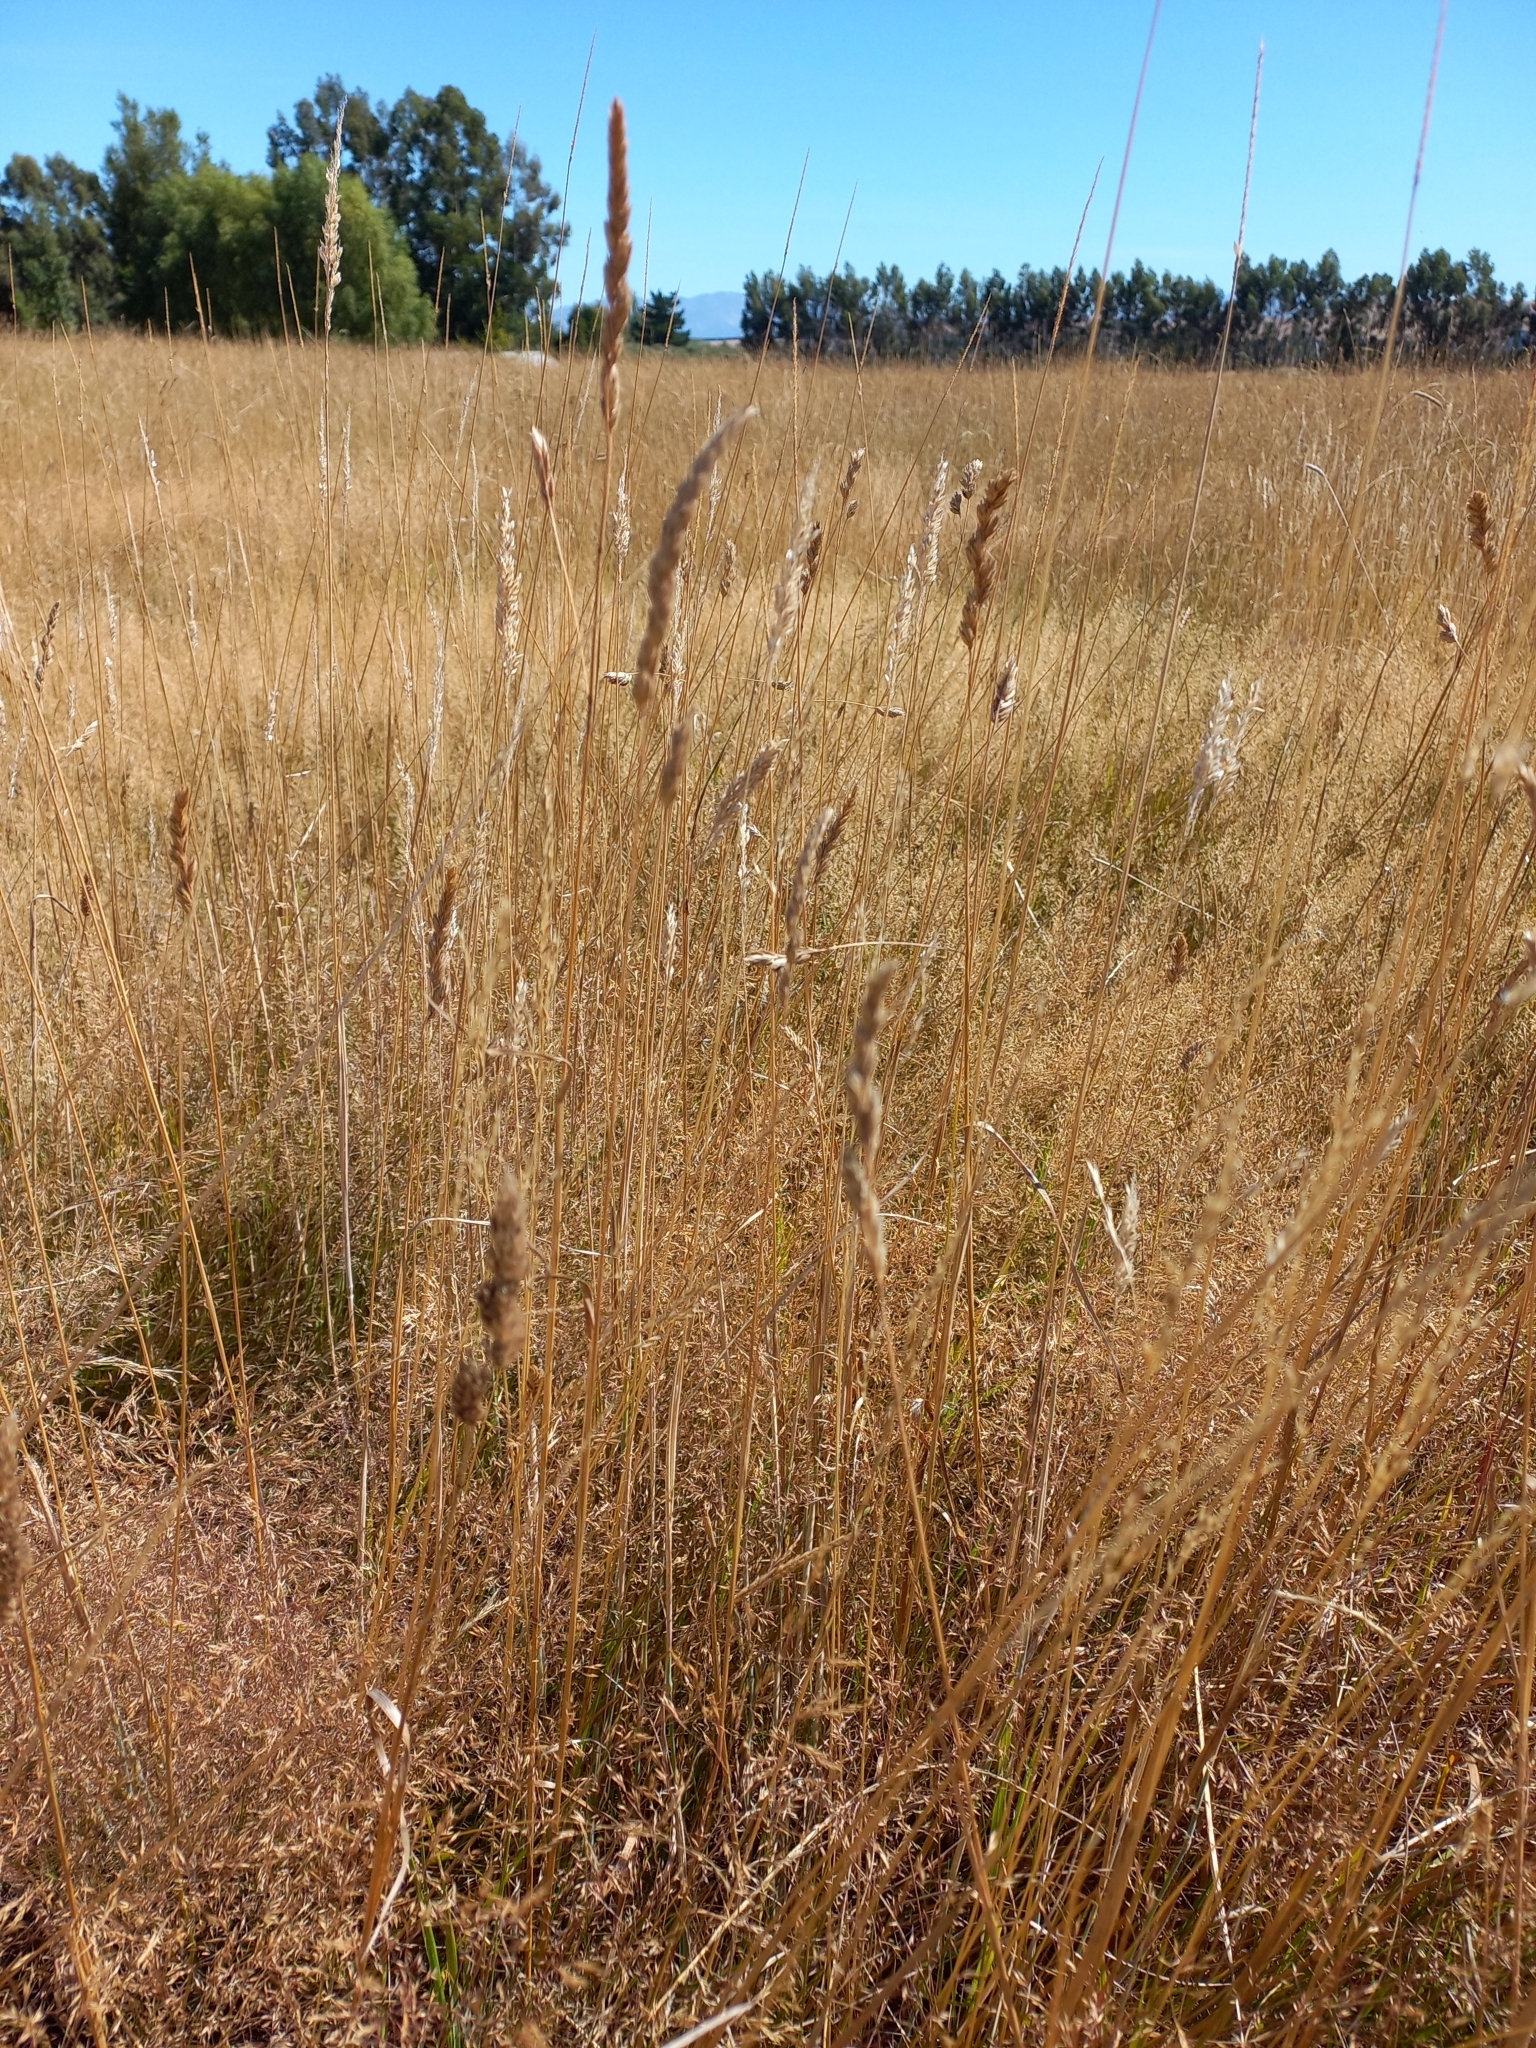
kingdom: Plantae
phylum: Tracheophyta
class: Liliopsida
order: Poales
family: Poaceae
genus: Dactylis
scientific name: Dactylis glomerata
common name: Orchardgrass
